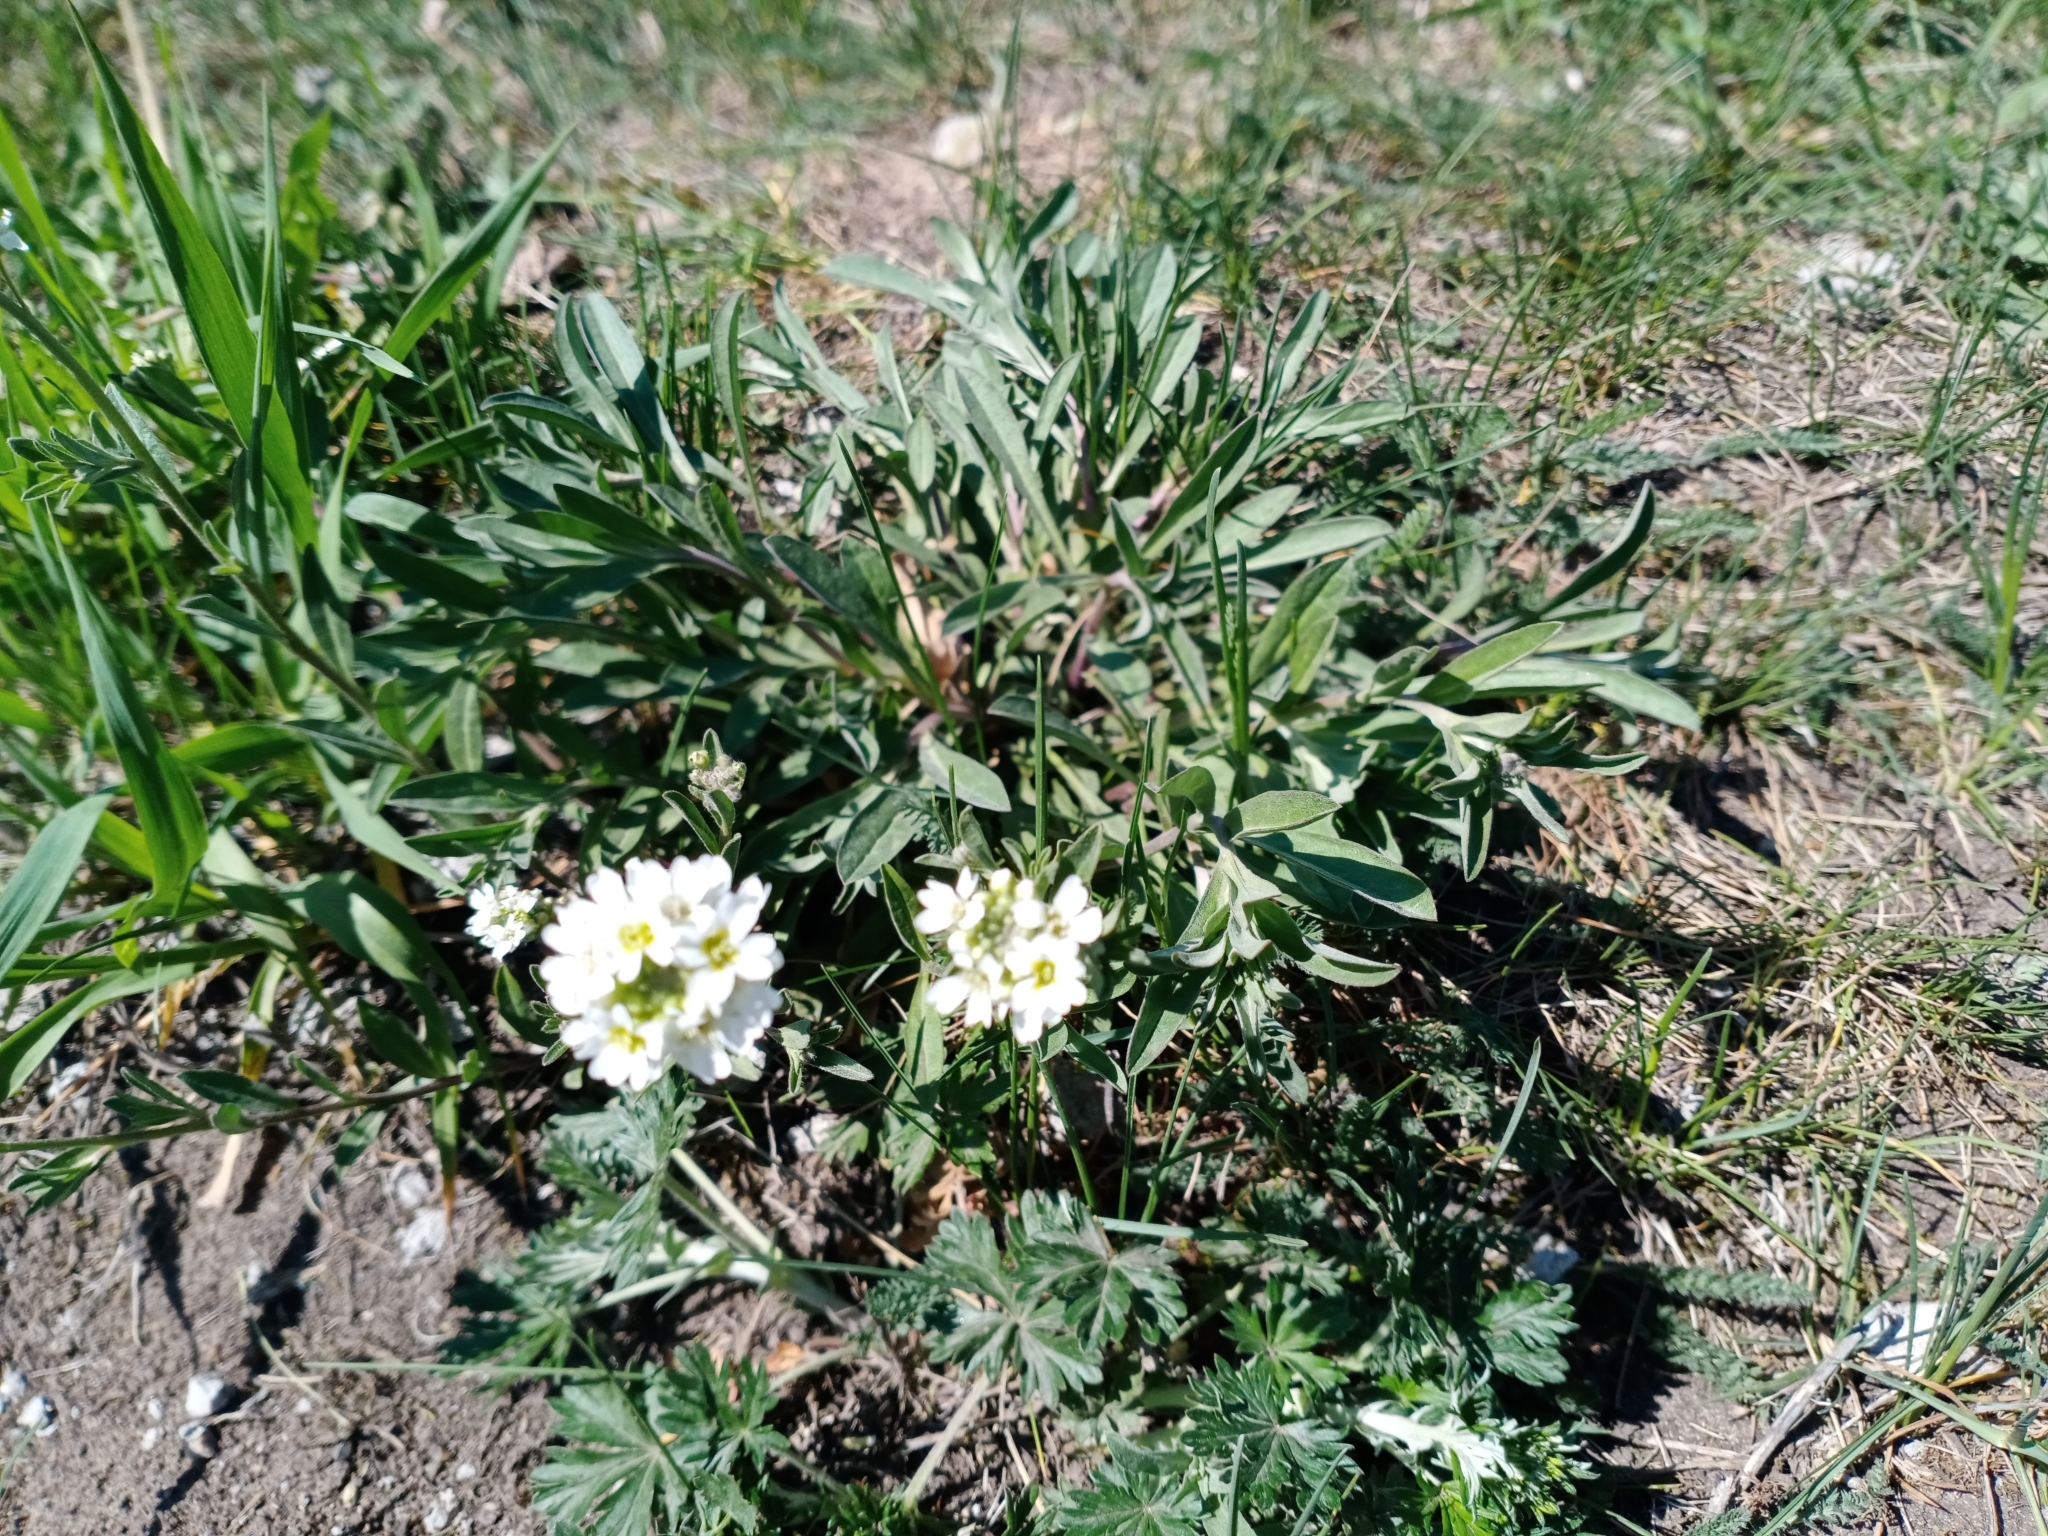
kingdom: Plantae
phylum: Tracheophyta
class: Magnoliopsida
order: Brassicales
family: Brassicaceae
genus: Berteroa
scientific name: Berteroa incana
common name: Hoary alison
